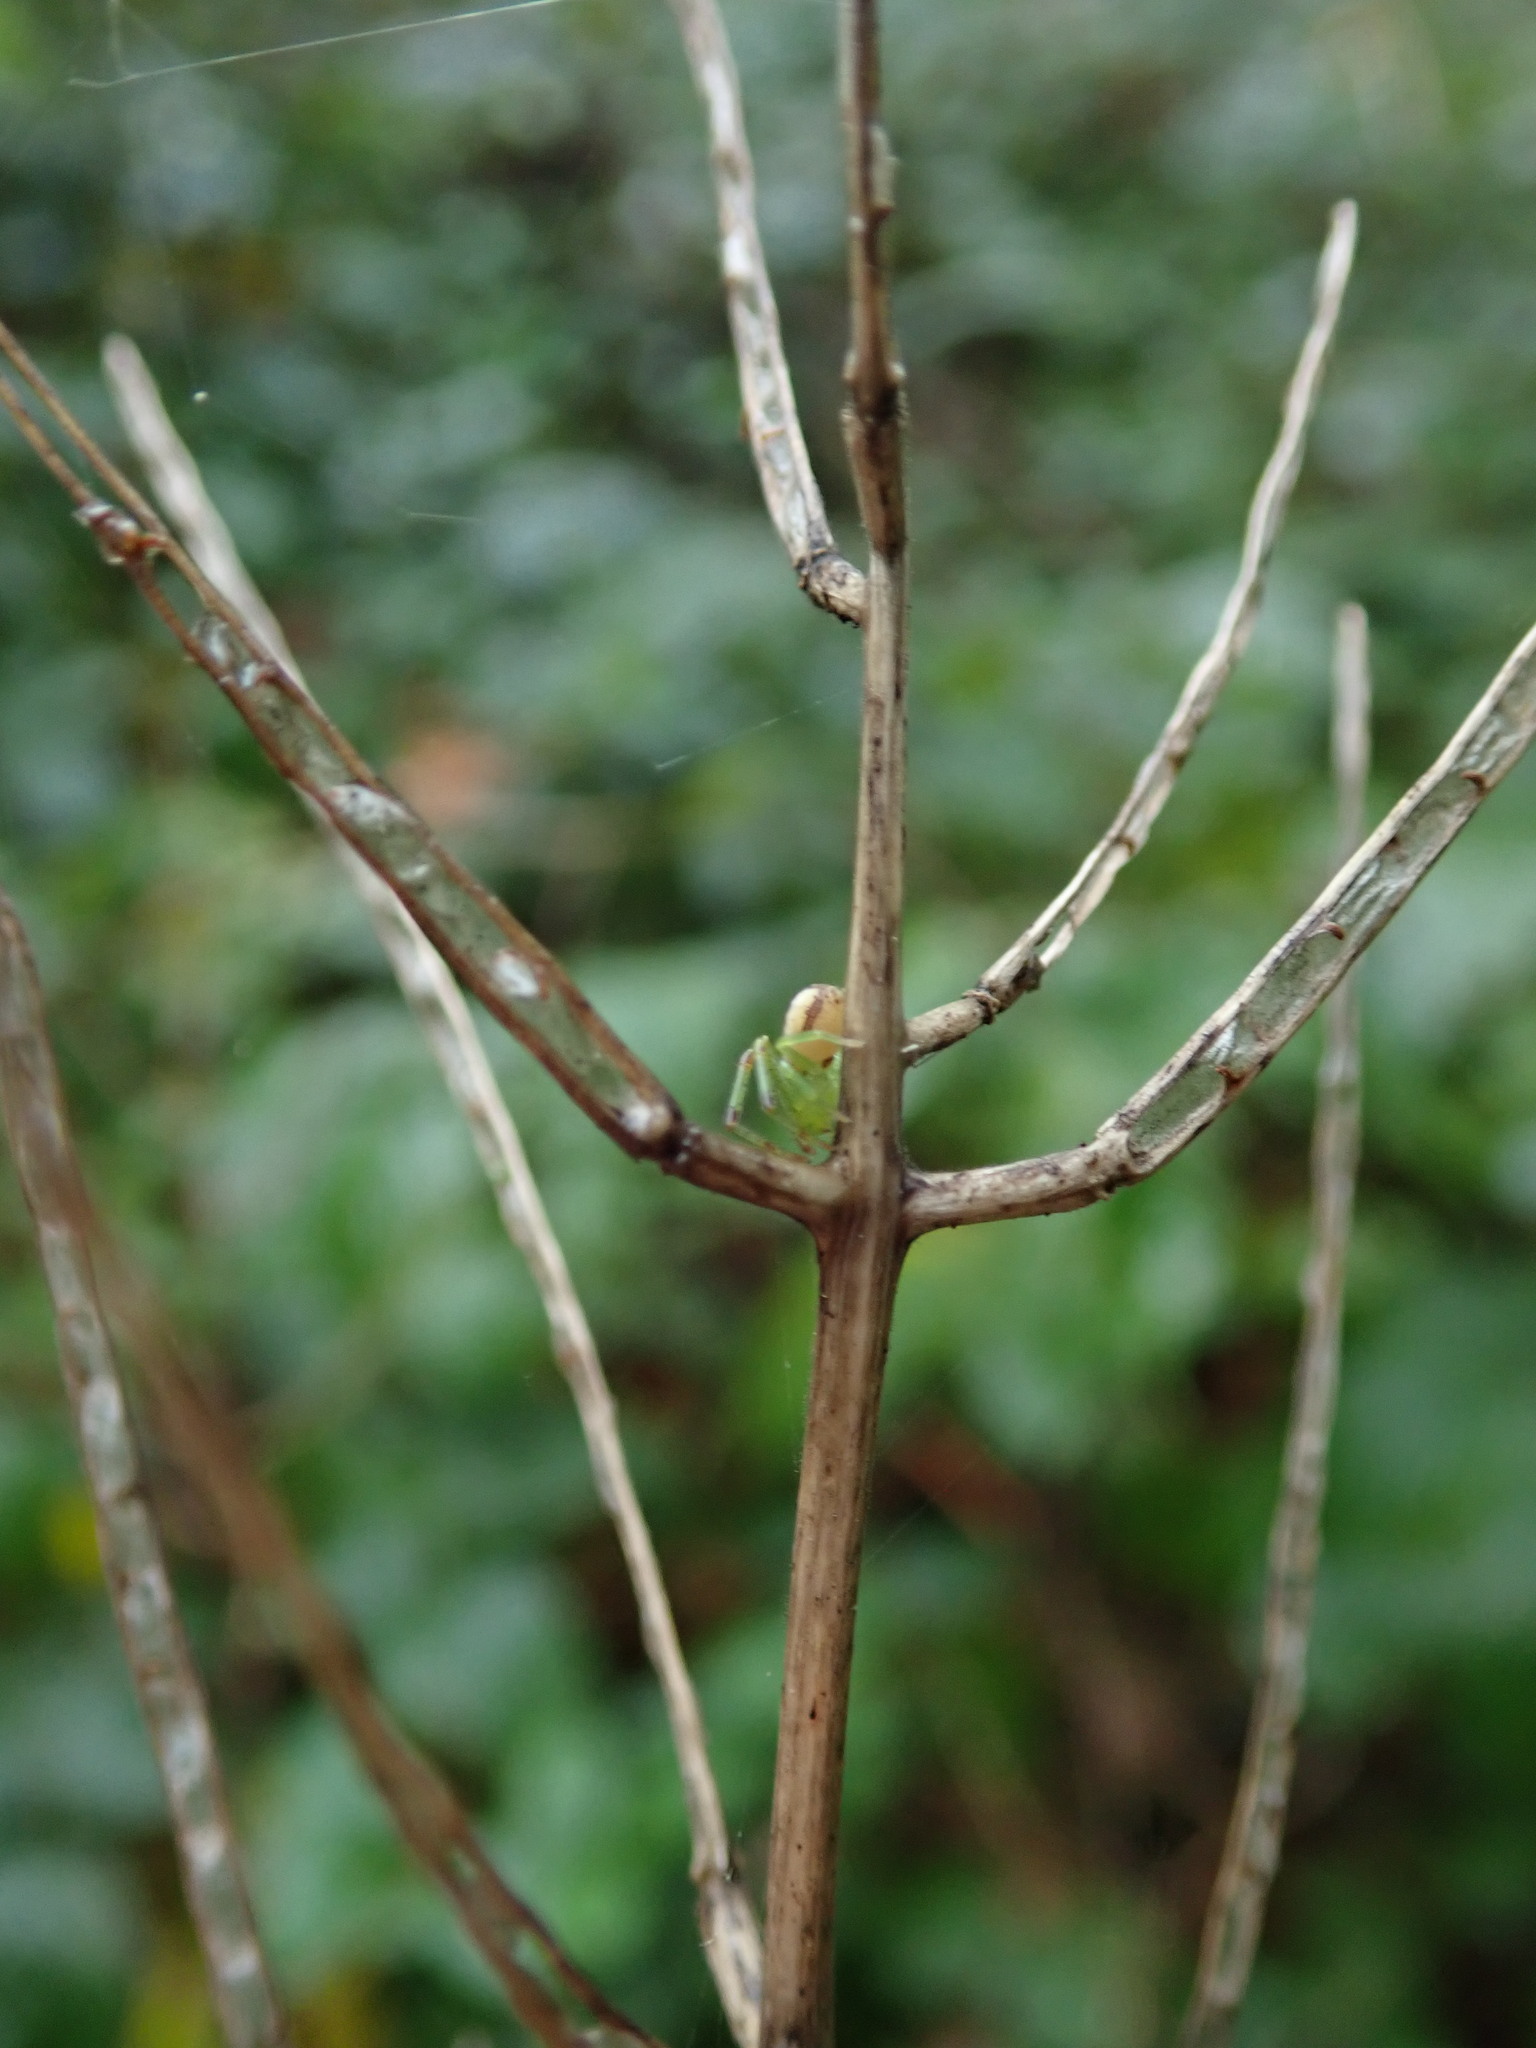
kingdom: Animalia
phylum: Arthropoda
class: Arachnida
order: Araneae
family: Thomisidae
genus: Diaea
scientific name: Diaea dorsata
